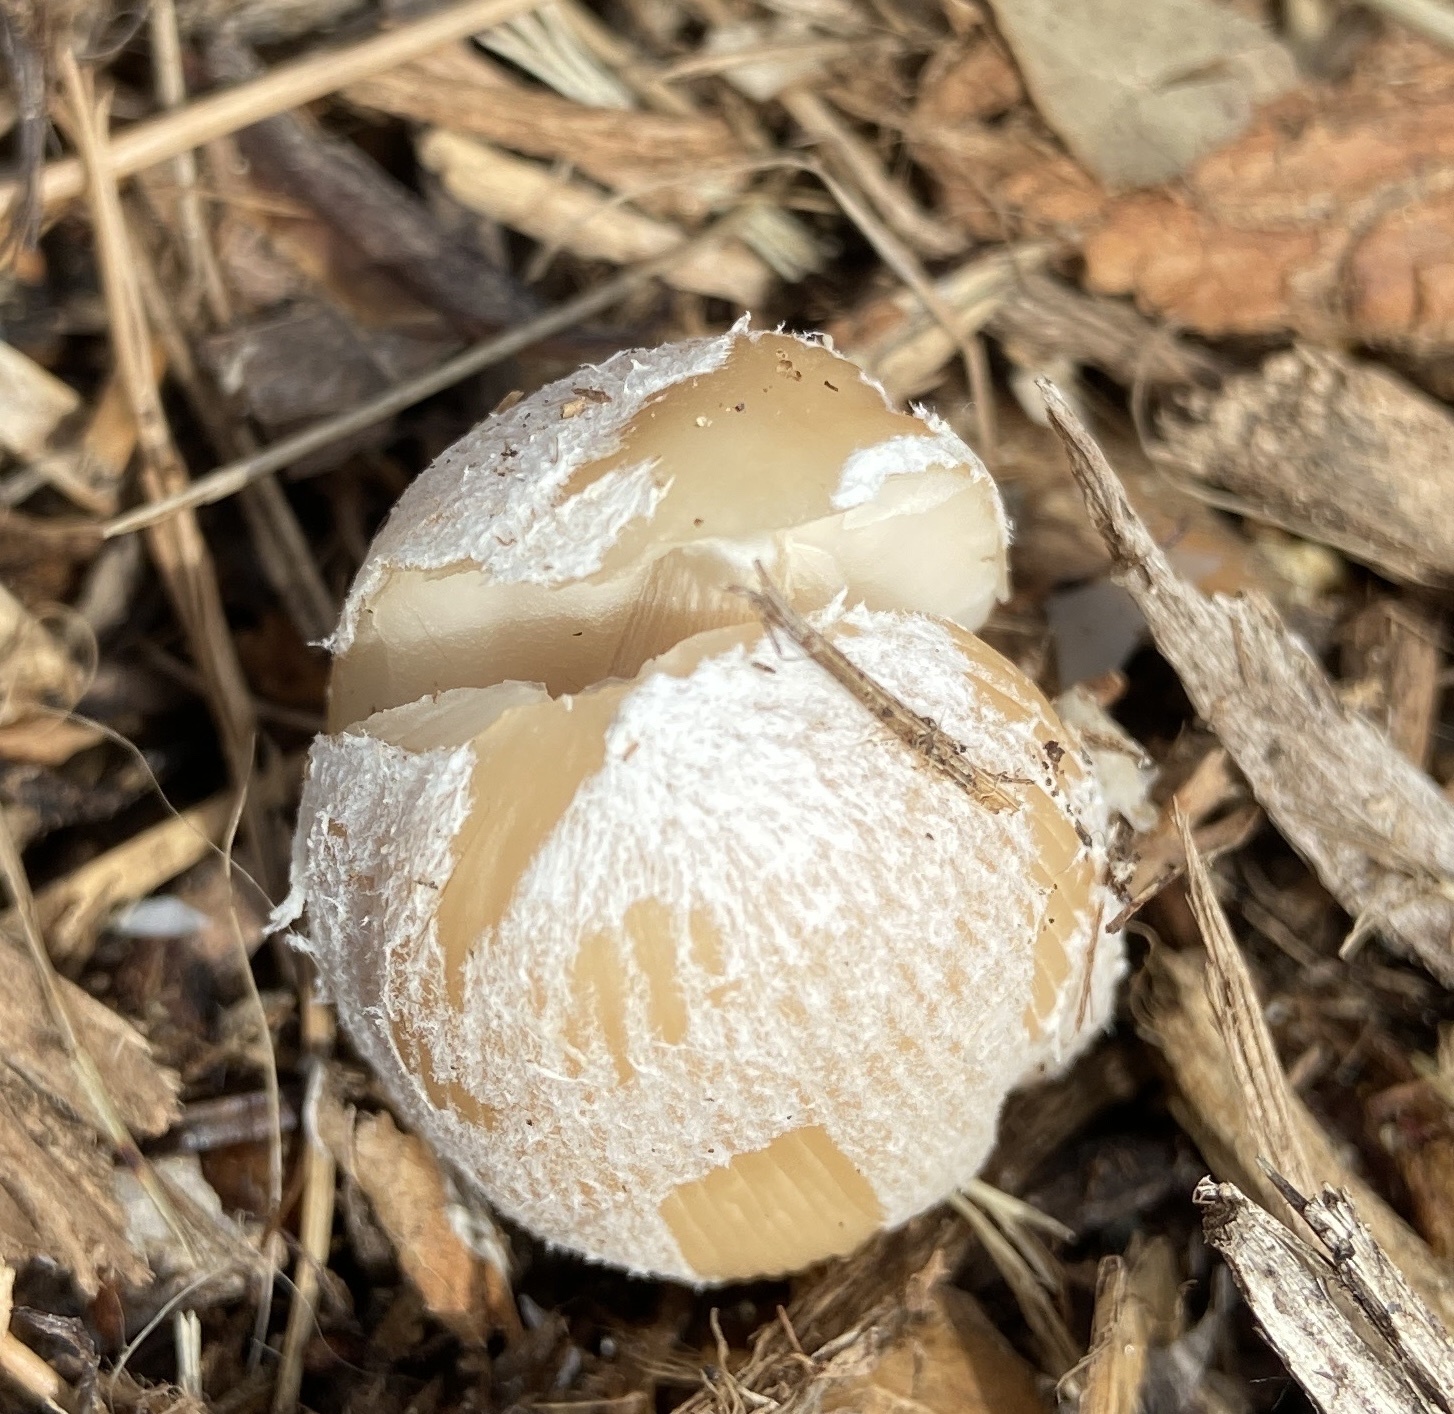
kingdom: Fungi
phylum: Basidiomycota
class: Agaricomycetes
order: Agaricales
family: Psathyrellaceae
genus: Coprinellus
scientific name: Coprinellus flocculosus
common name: Flocculose inkcap
